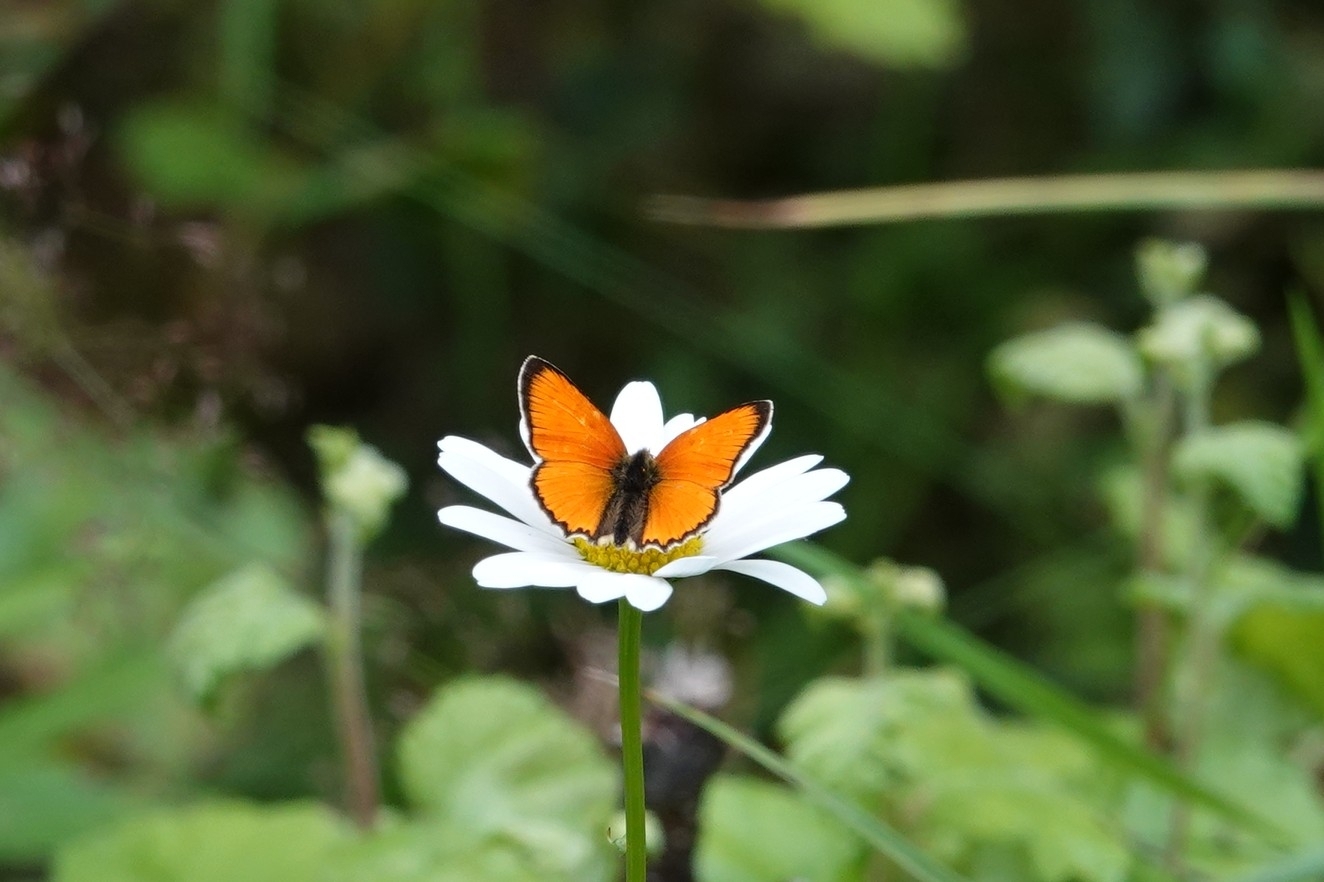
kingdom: Animalia
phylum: Arthropoda
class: Insecta
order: Lepidoptera
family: Lycaenidae
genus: Lycaena
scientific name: Lycaena virgaureae
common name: Scarce copper
